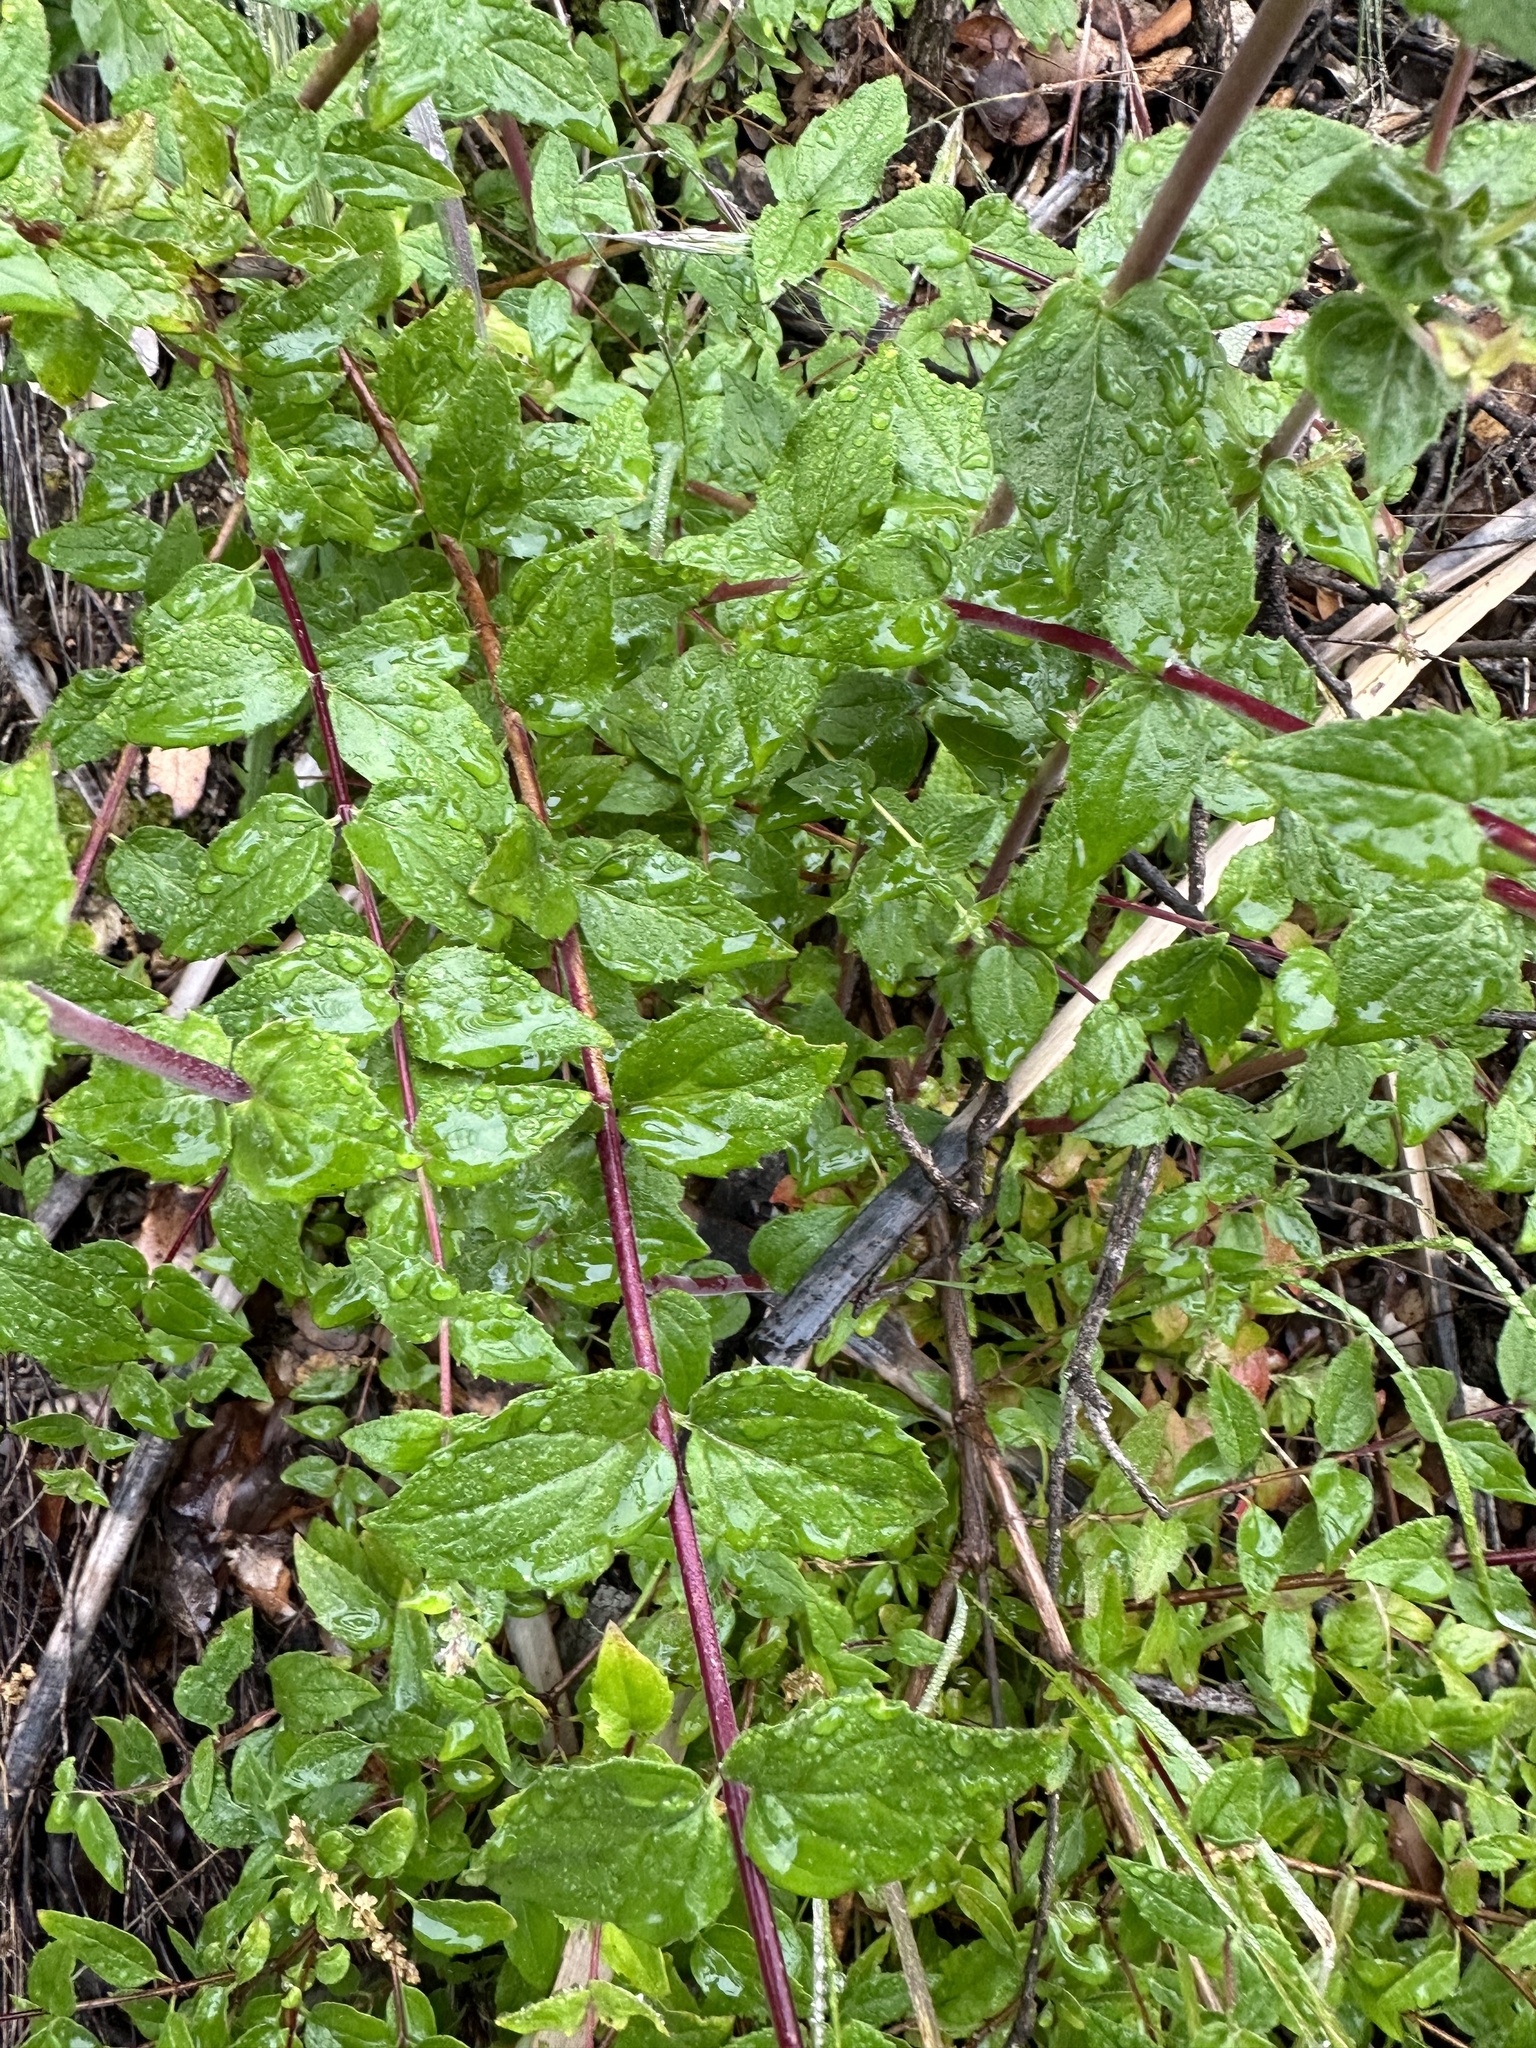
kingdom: Plantae
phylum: Tracheophyta
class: Magnoliopsida
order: Lamiales
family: Plantaginaceae
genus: Keckiella
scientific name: Keckiella cordifolia
